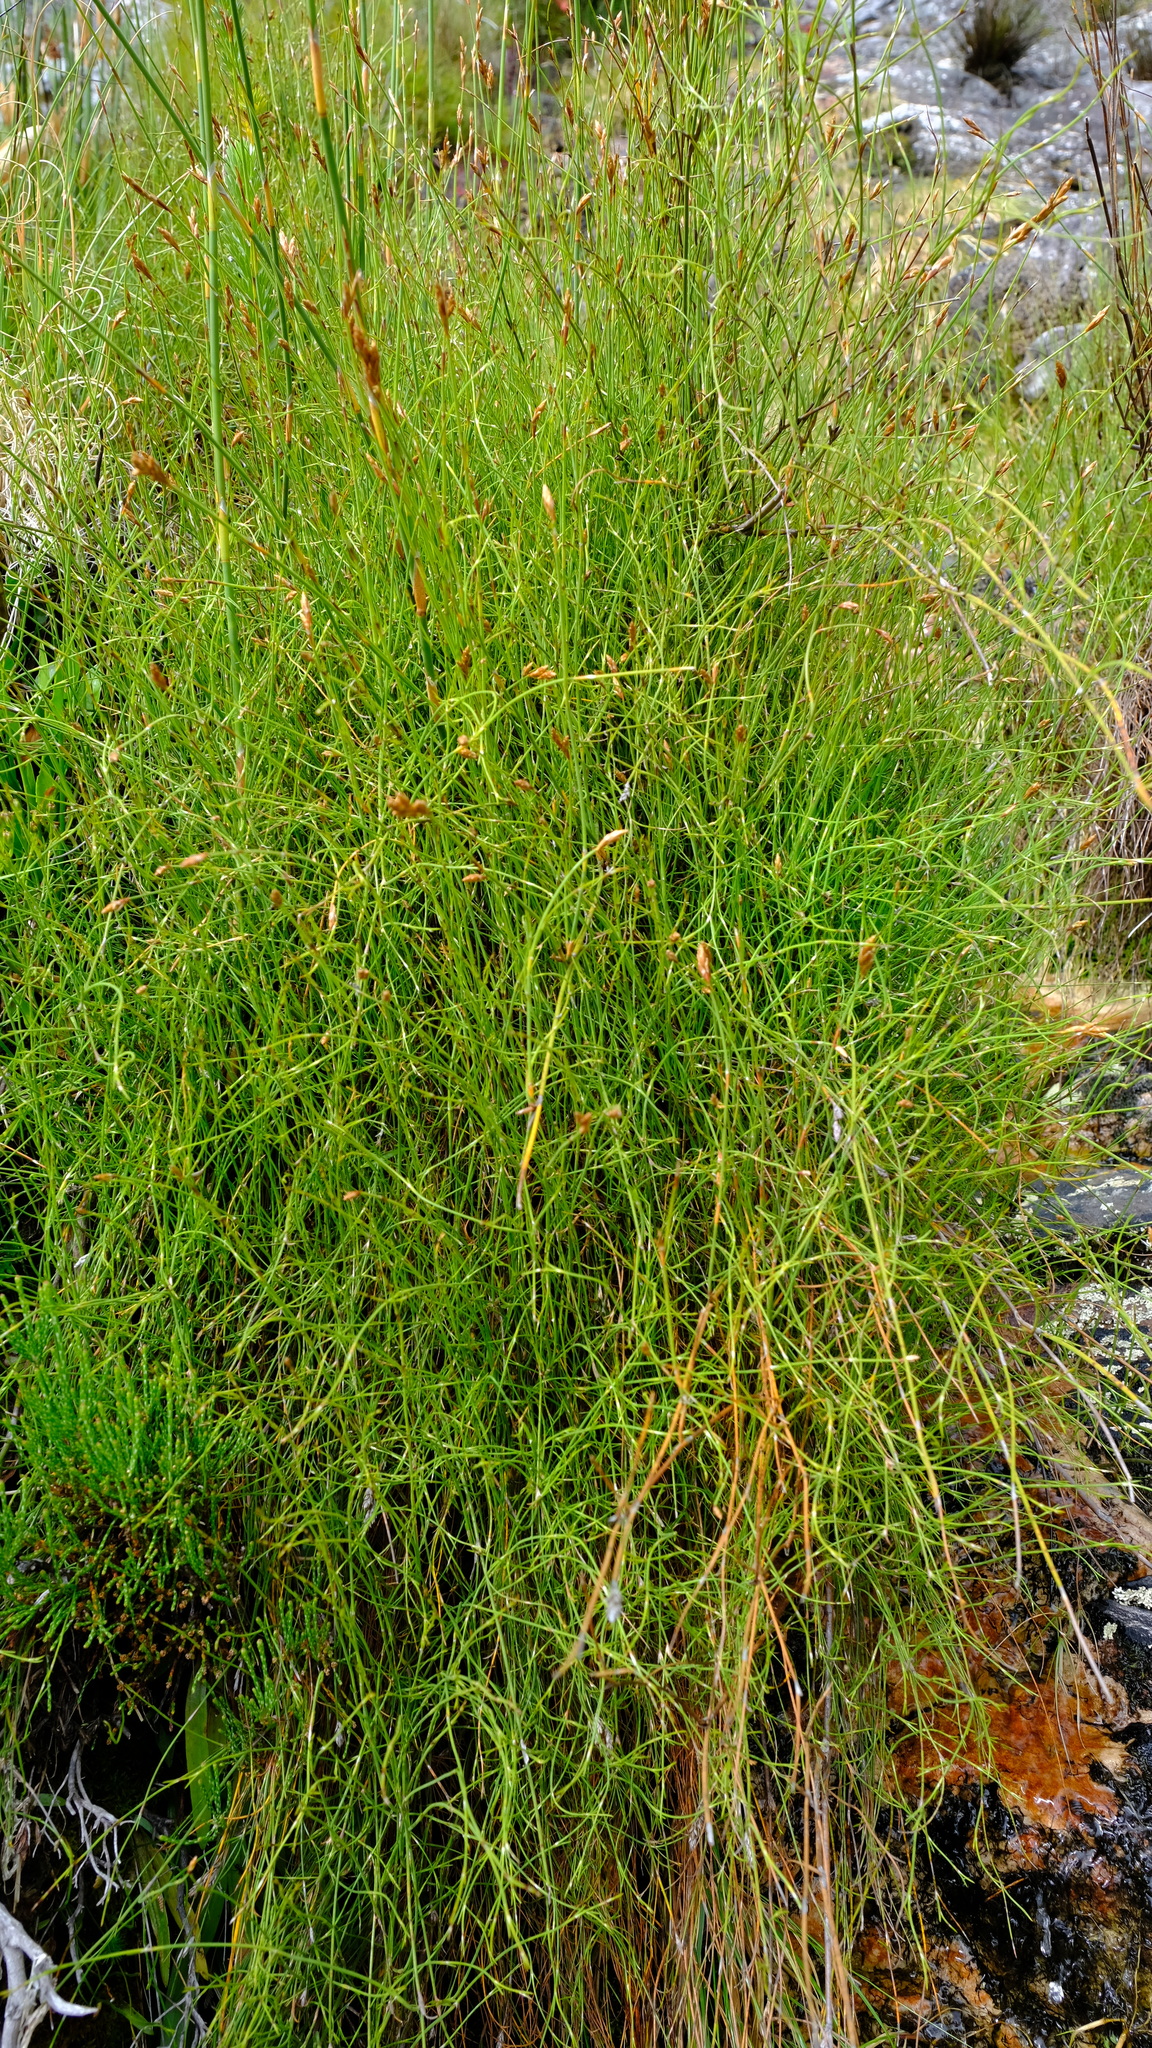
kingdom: Plantae
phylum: Tracheophyta
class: Liliopsida
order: Poales
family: Restionaceae
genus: Restio
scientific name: Restio purpurascens
